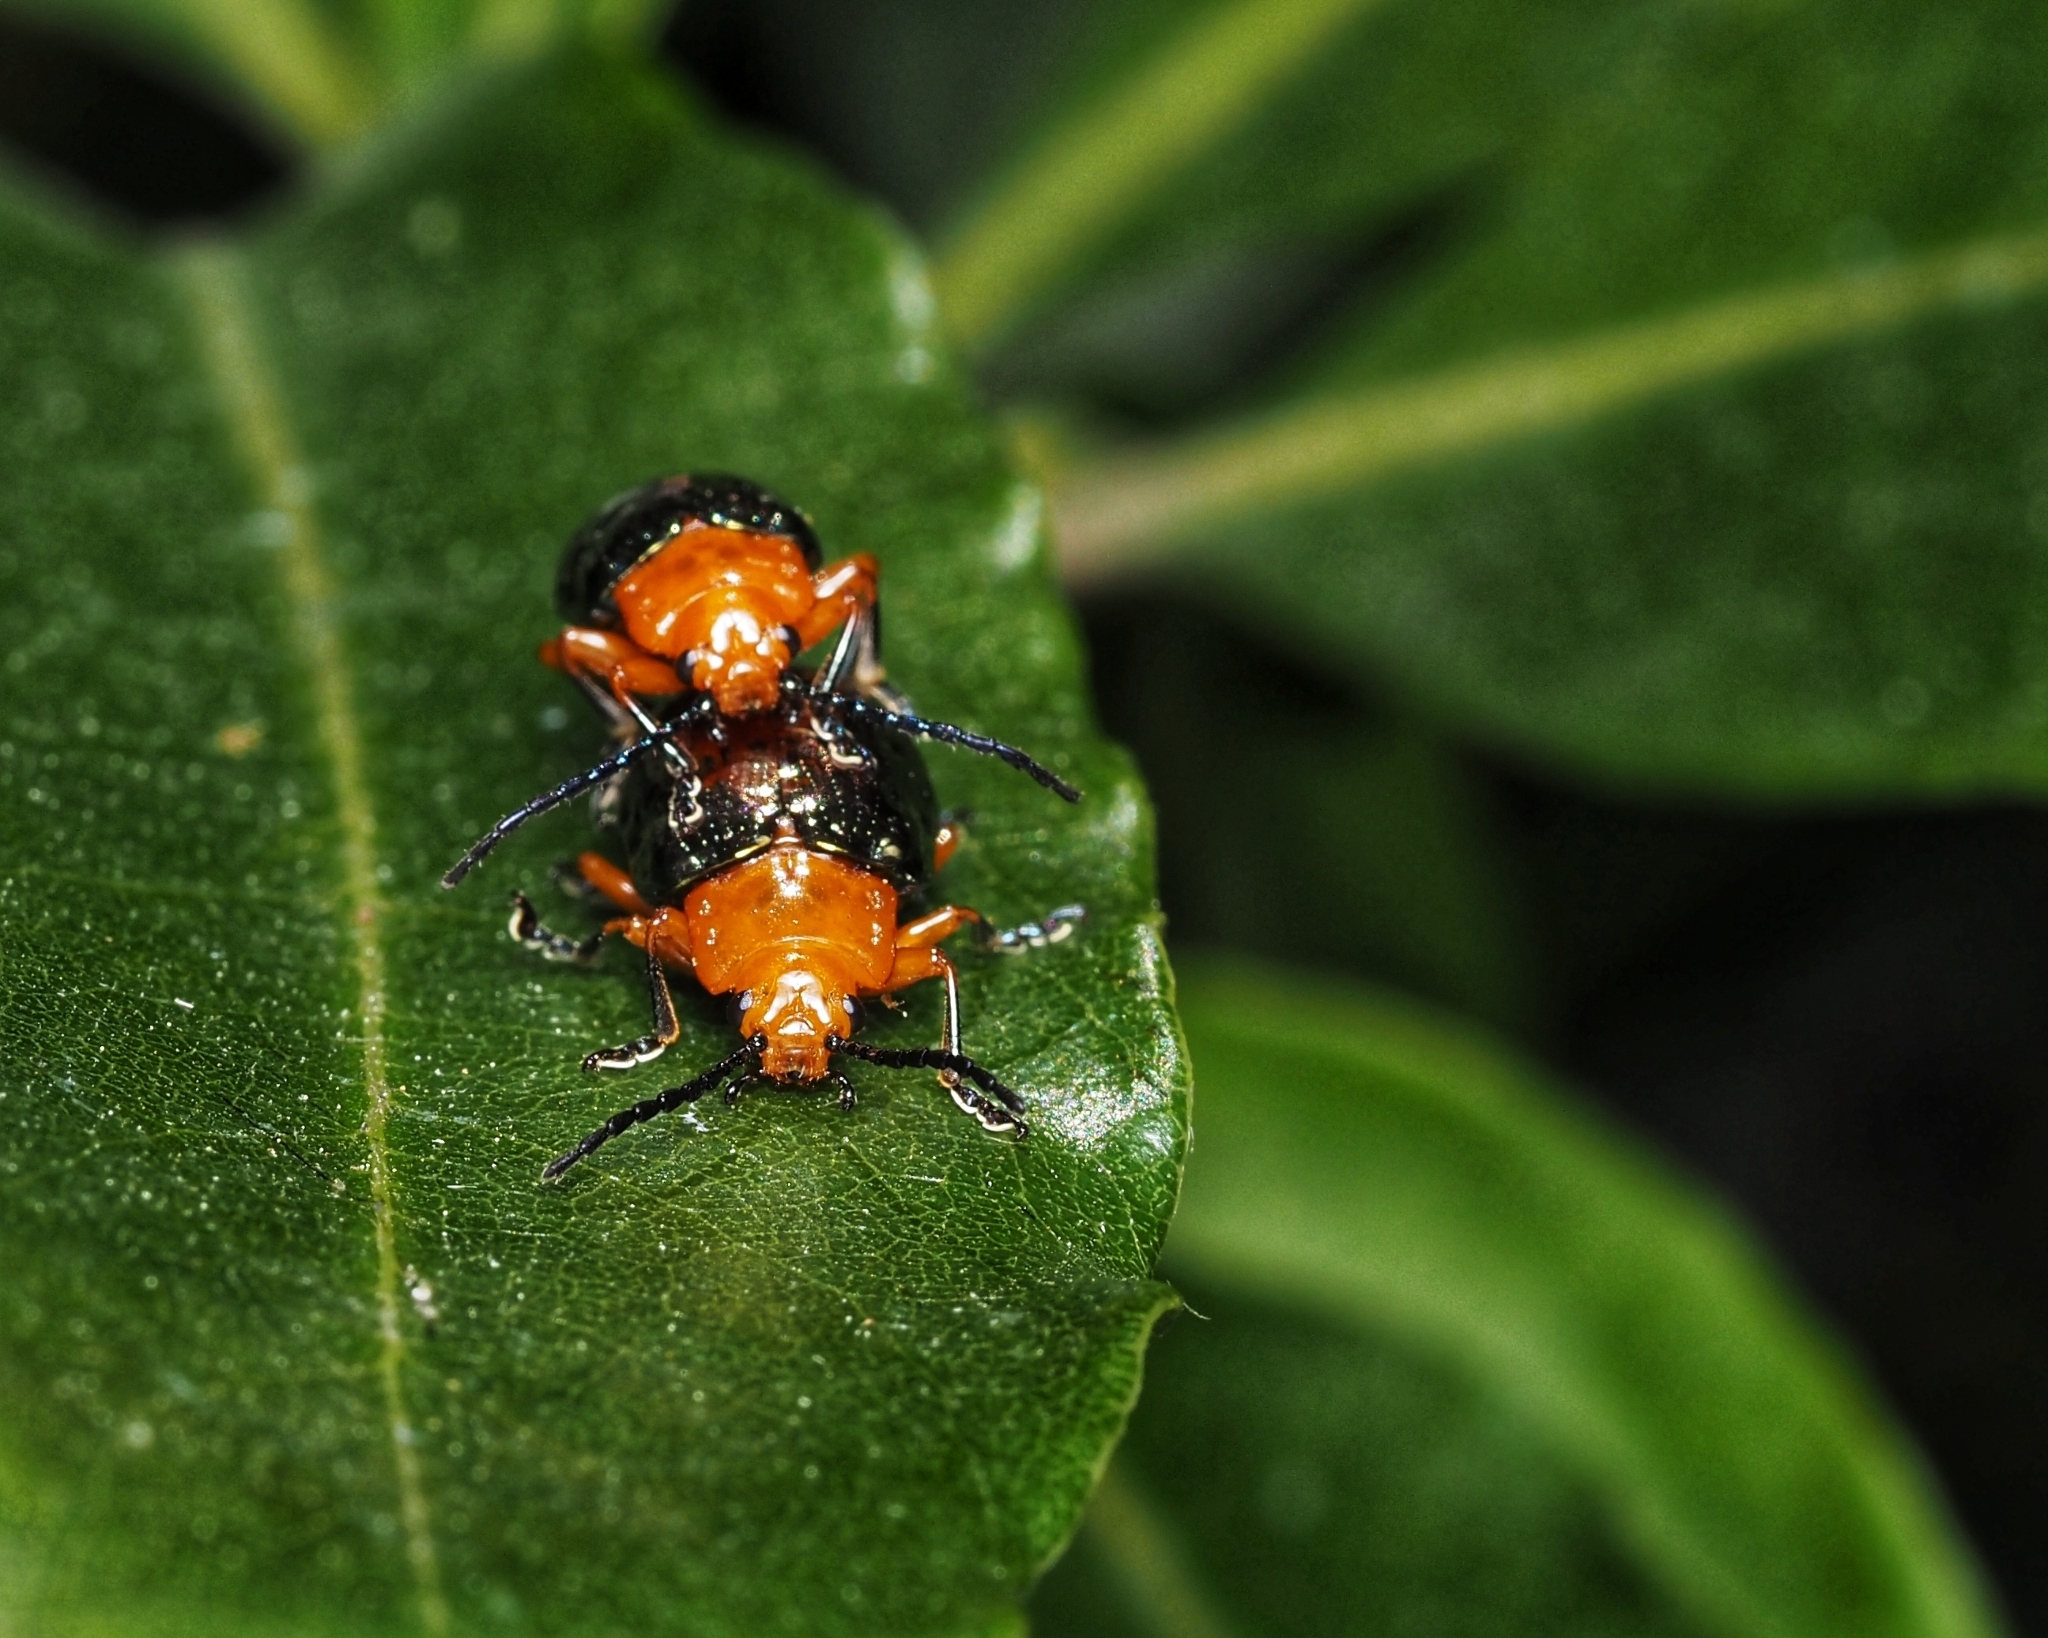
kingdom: Animalia
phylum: Arthropoda
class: Insecta
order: Coleoptera
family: Chrysomelidae
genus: Lamprolina
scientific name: Lamprolina
